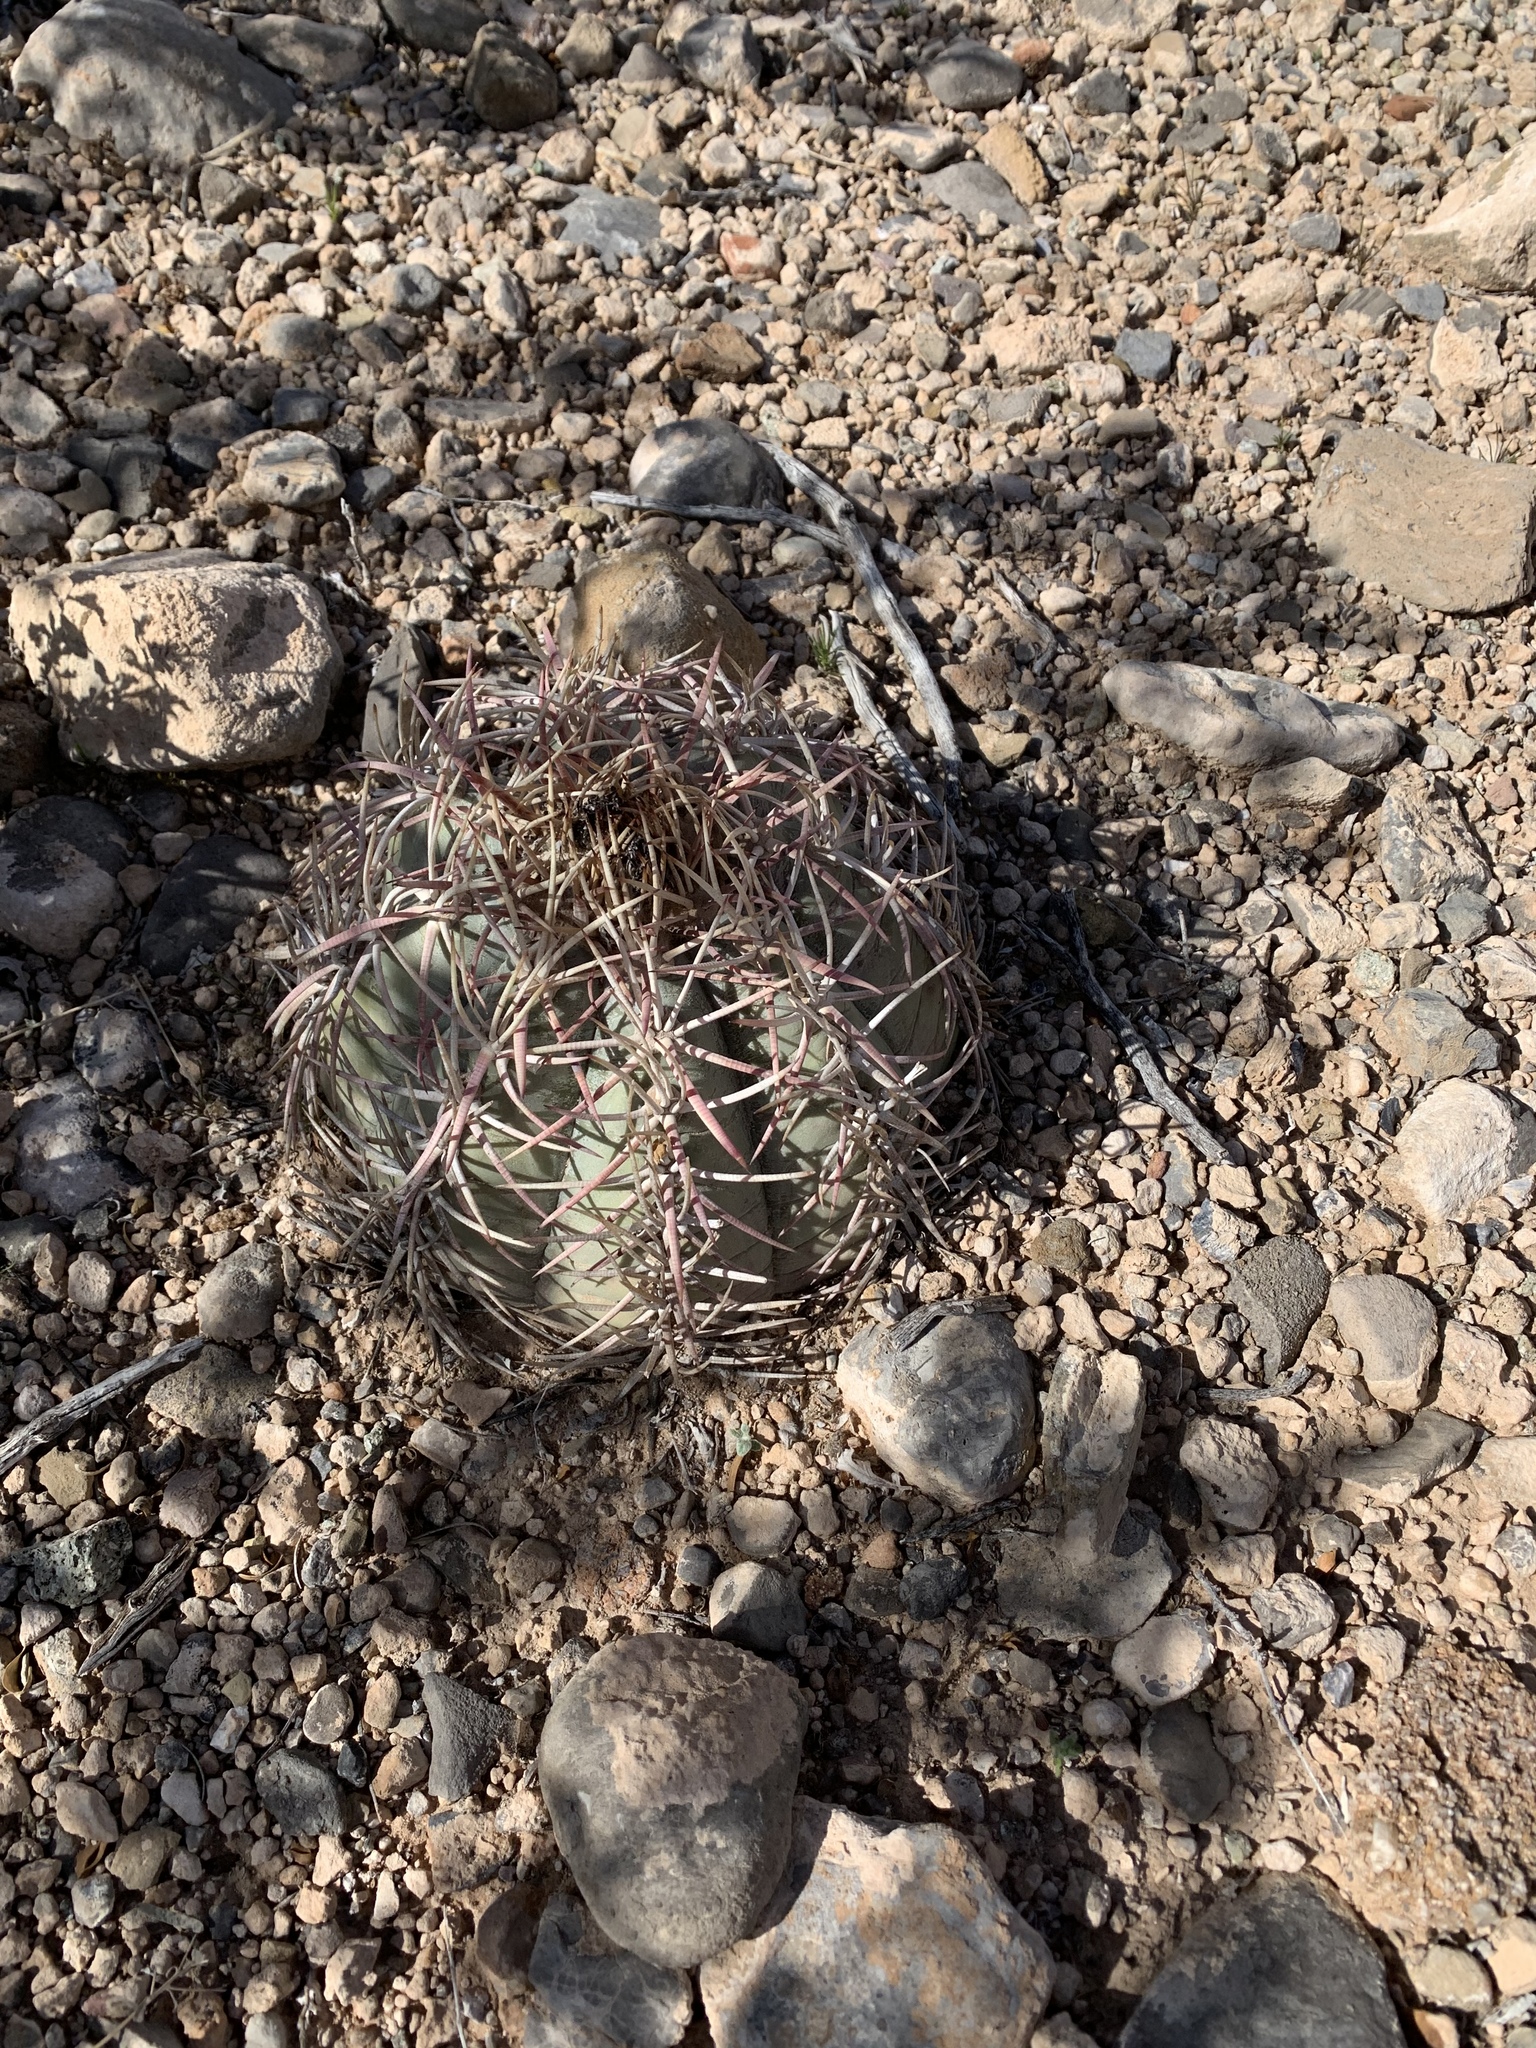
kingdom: Plantae
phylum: Tracheophyta
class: Magnoliopsida
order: Caryophyllales
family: Cactaceae
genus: Echinocactus
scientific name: Echinocactus horizonthalonius
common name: Devilshead
